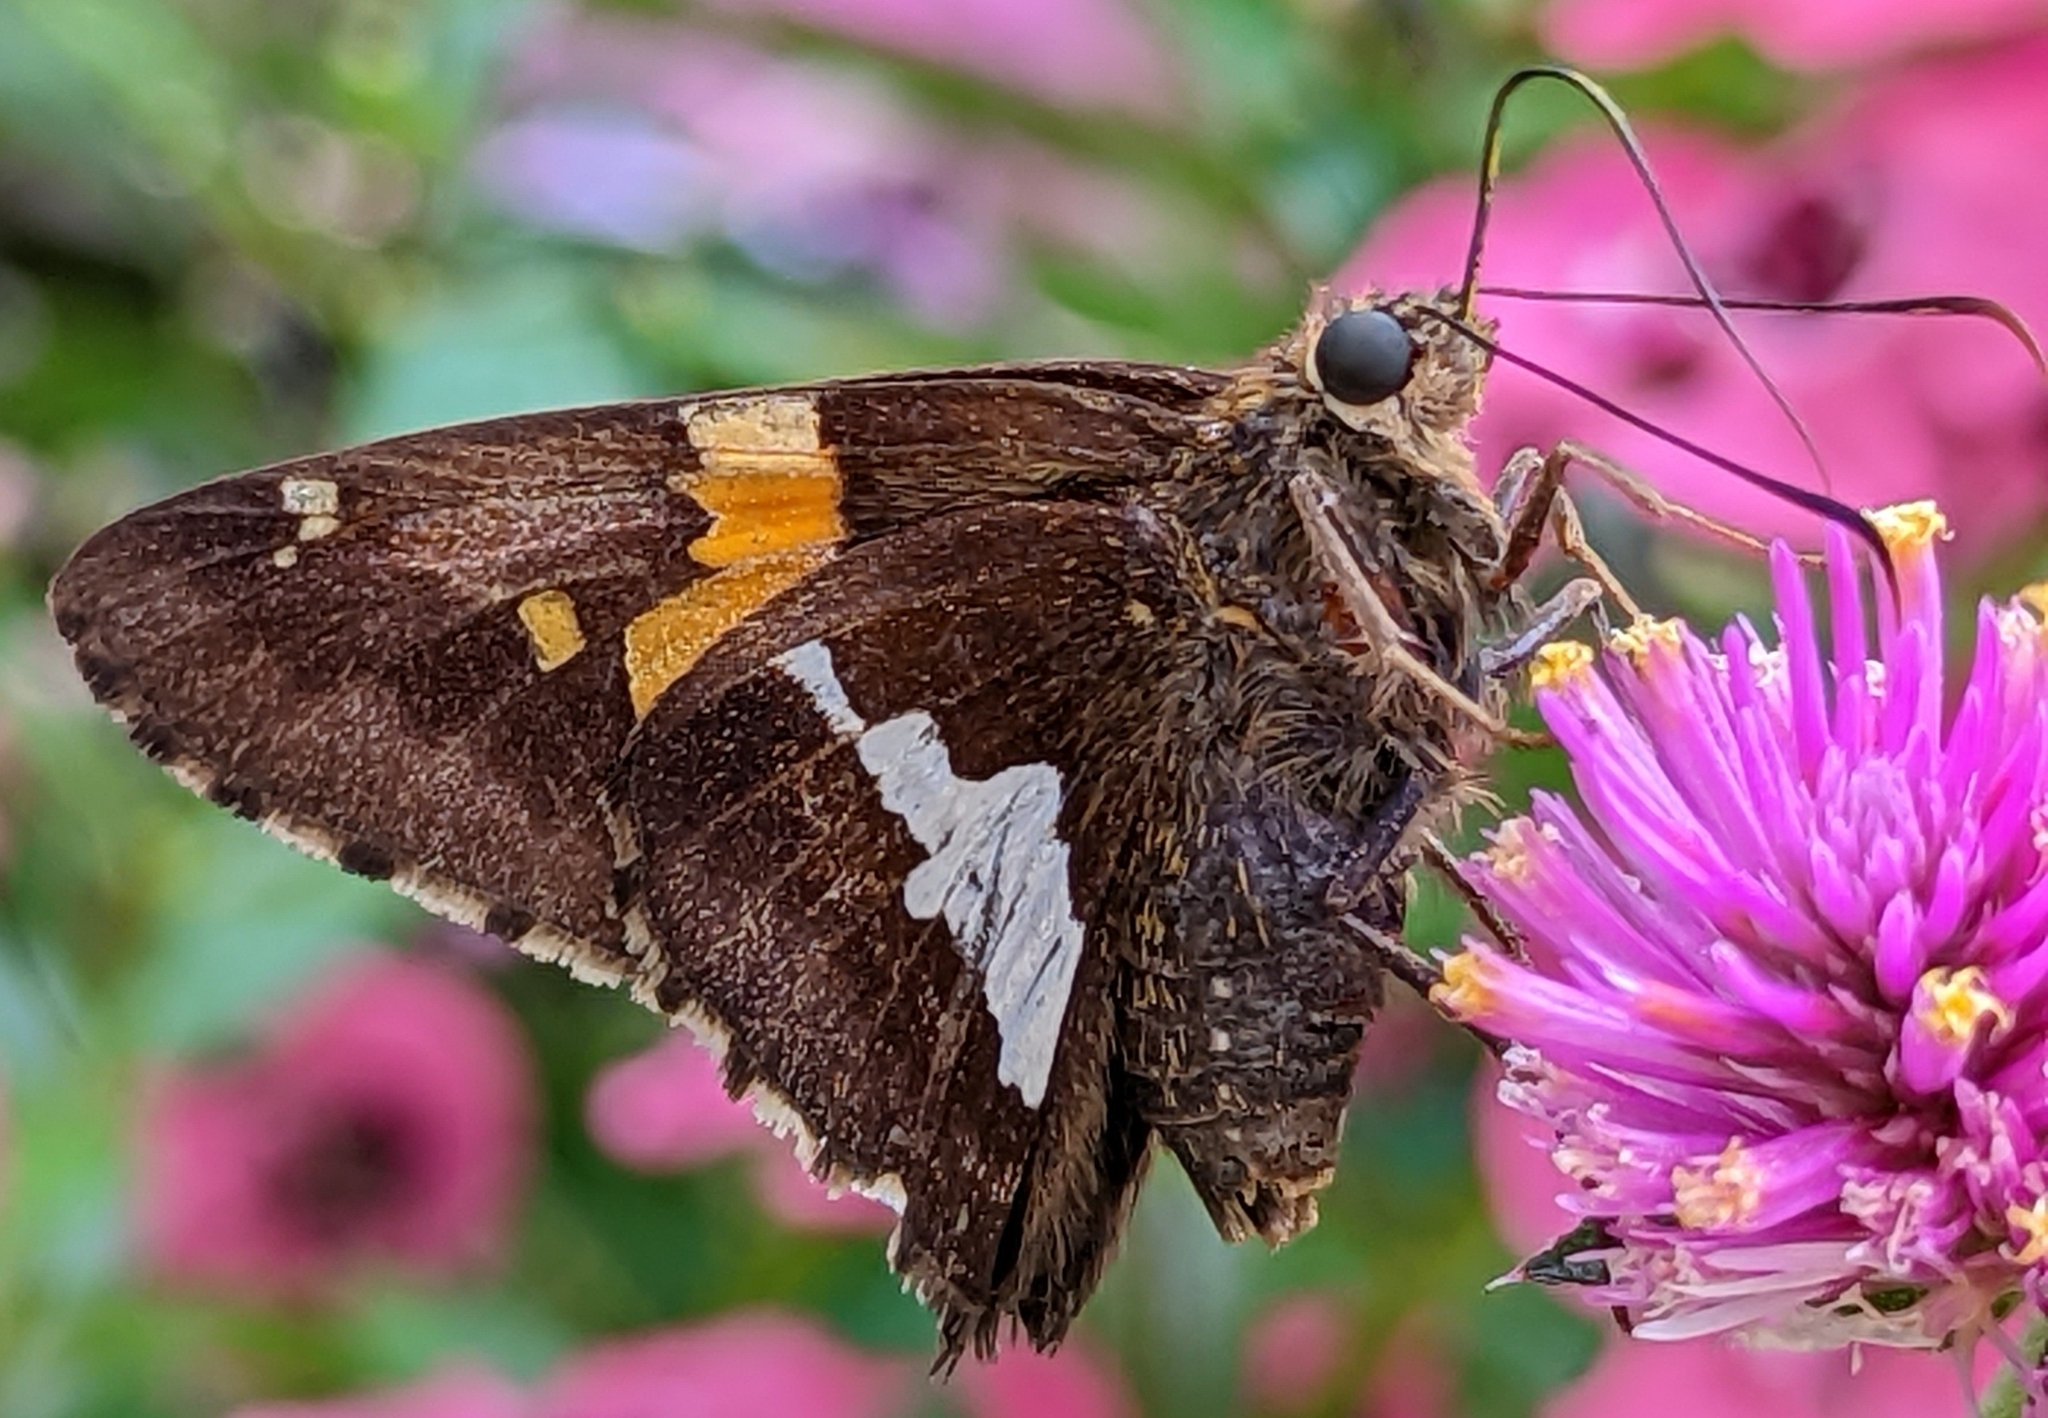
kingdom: Animalia
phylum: Arthropoda
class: Insecta
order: Lepidoptera
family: Hesperiidae
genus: Epargyreus
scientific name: Epargyreus clarus
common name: Silver-spotted skipper
